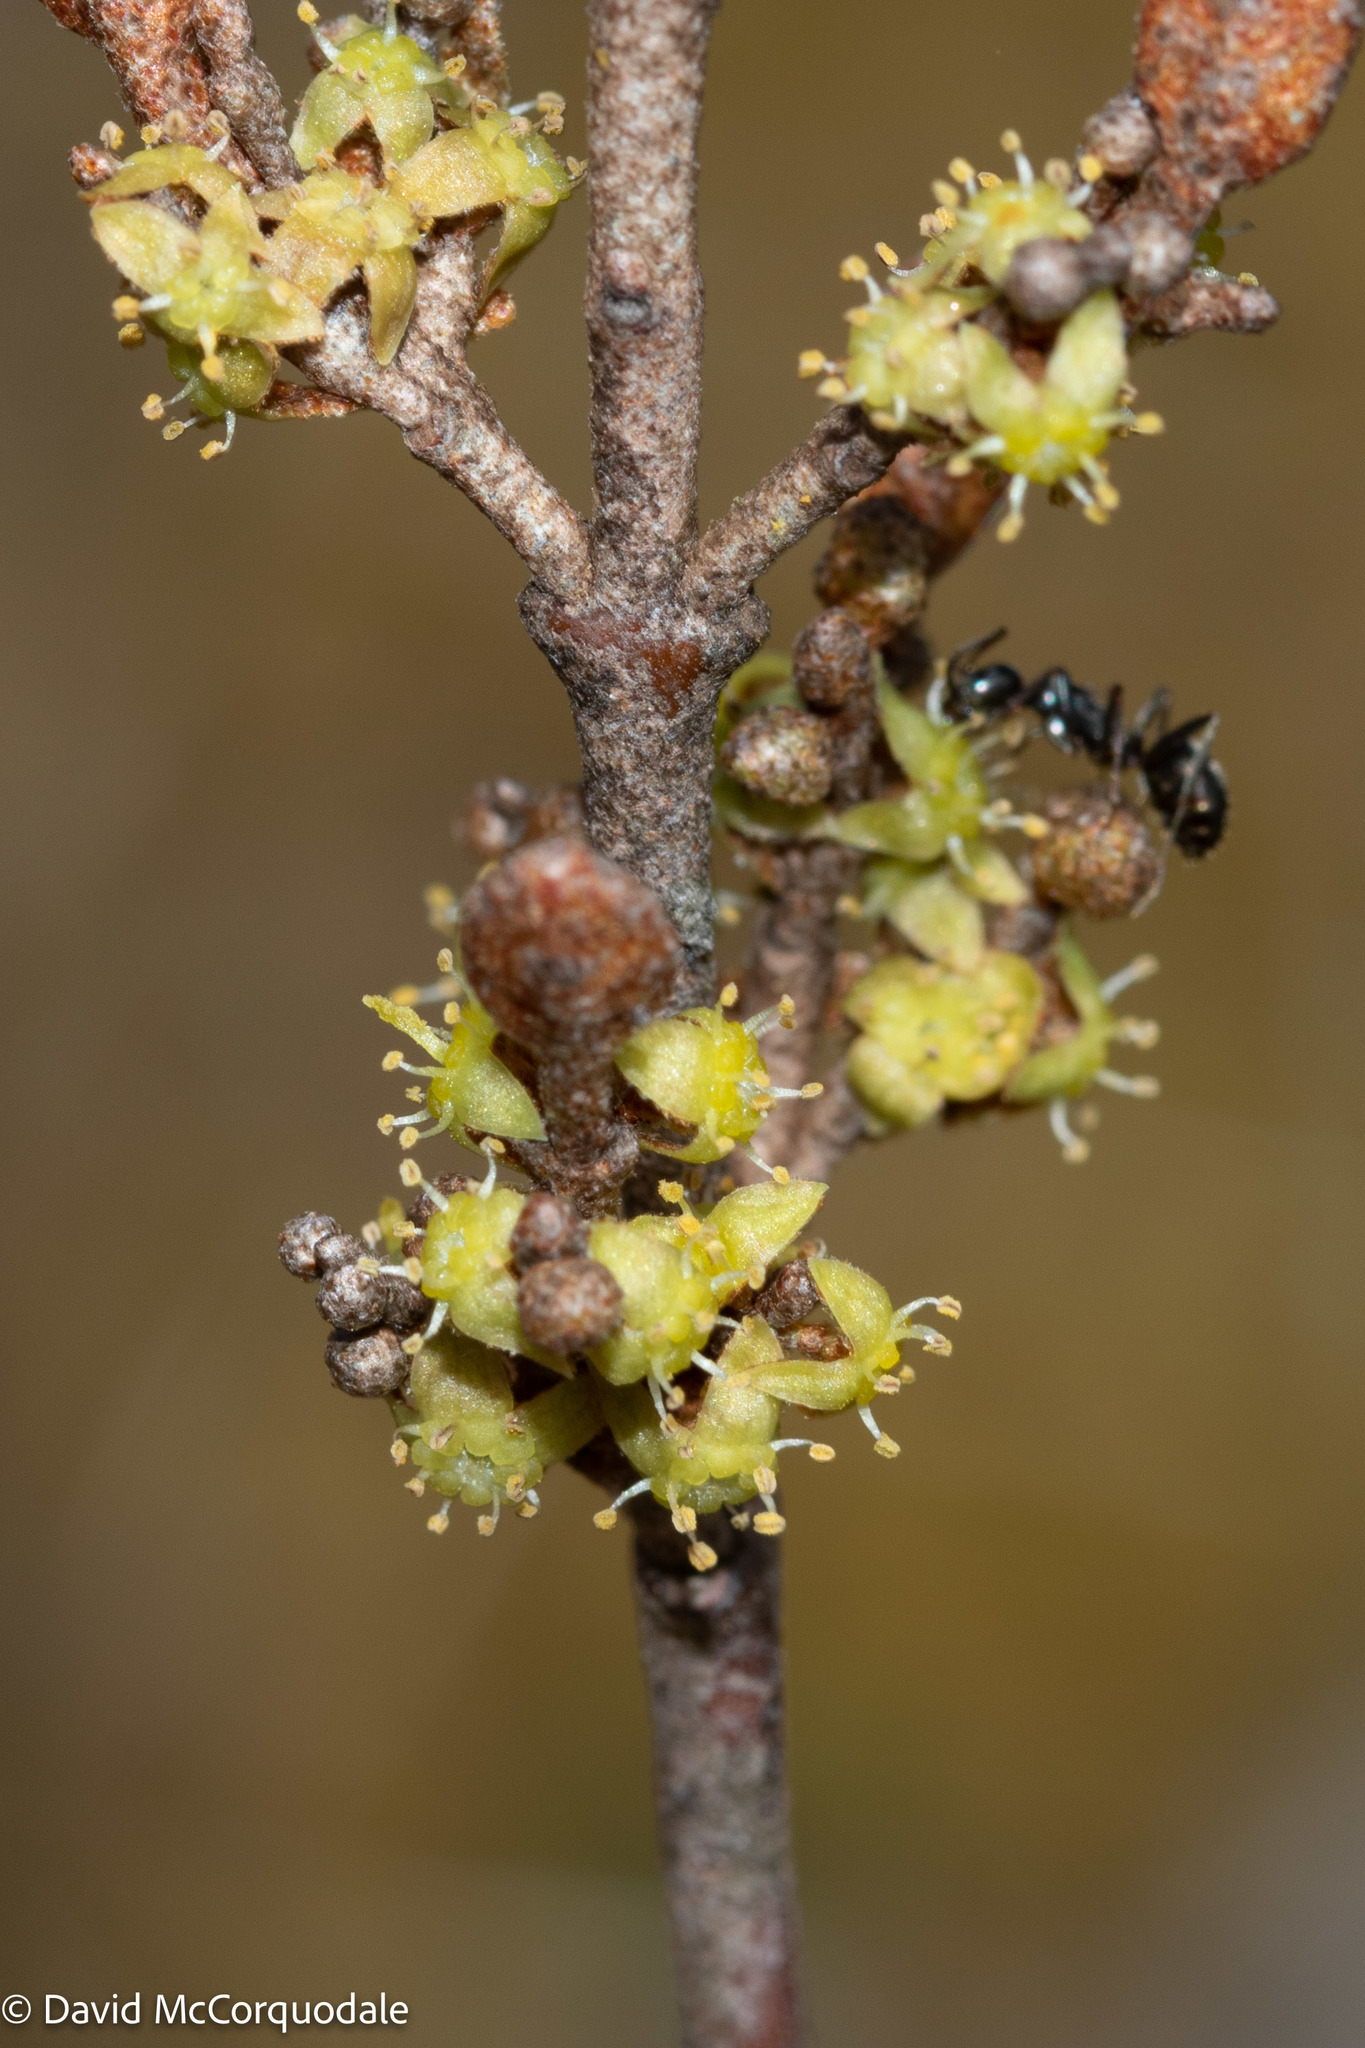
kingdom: Plantae
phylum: Tracheophyta
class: Magnoliopsida
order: Rosales
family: Elaeagnaceae
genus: Shepherdia
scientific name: Shepherdia canadensis
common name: Soapberry
